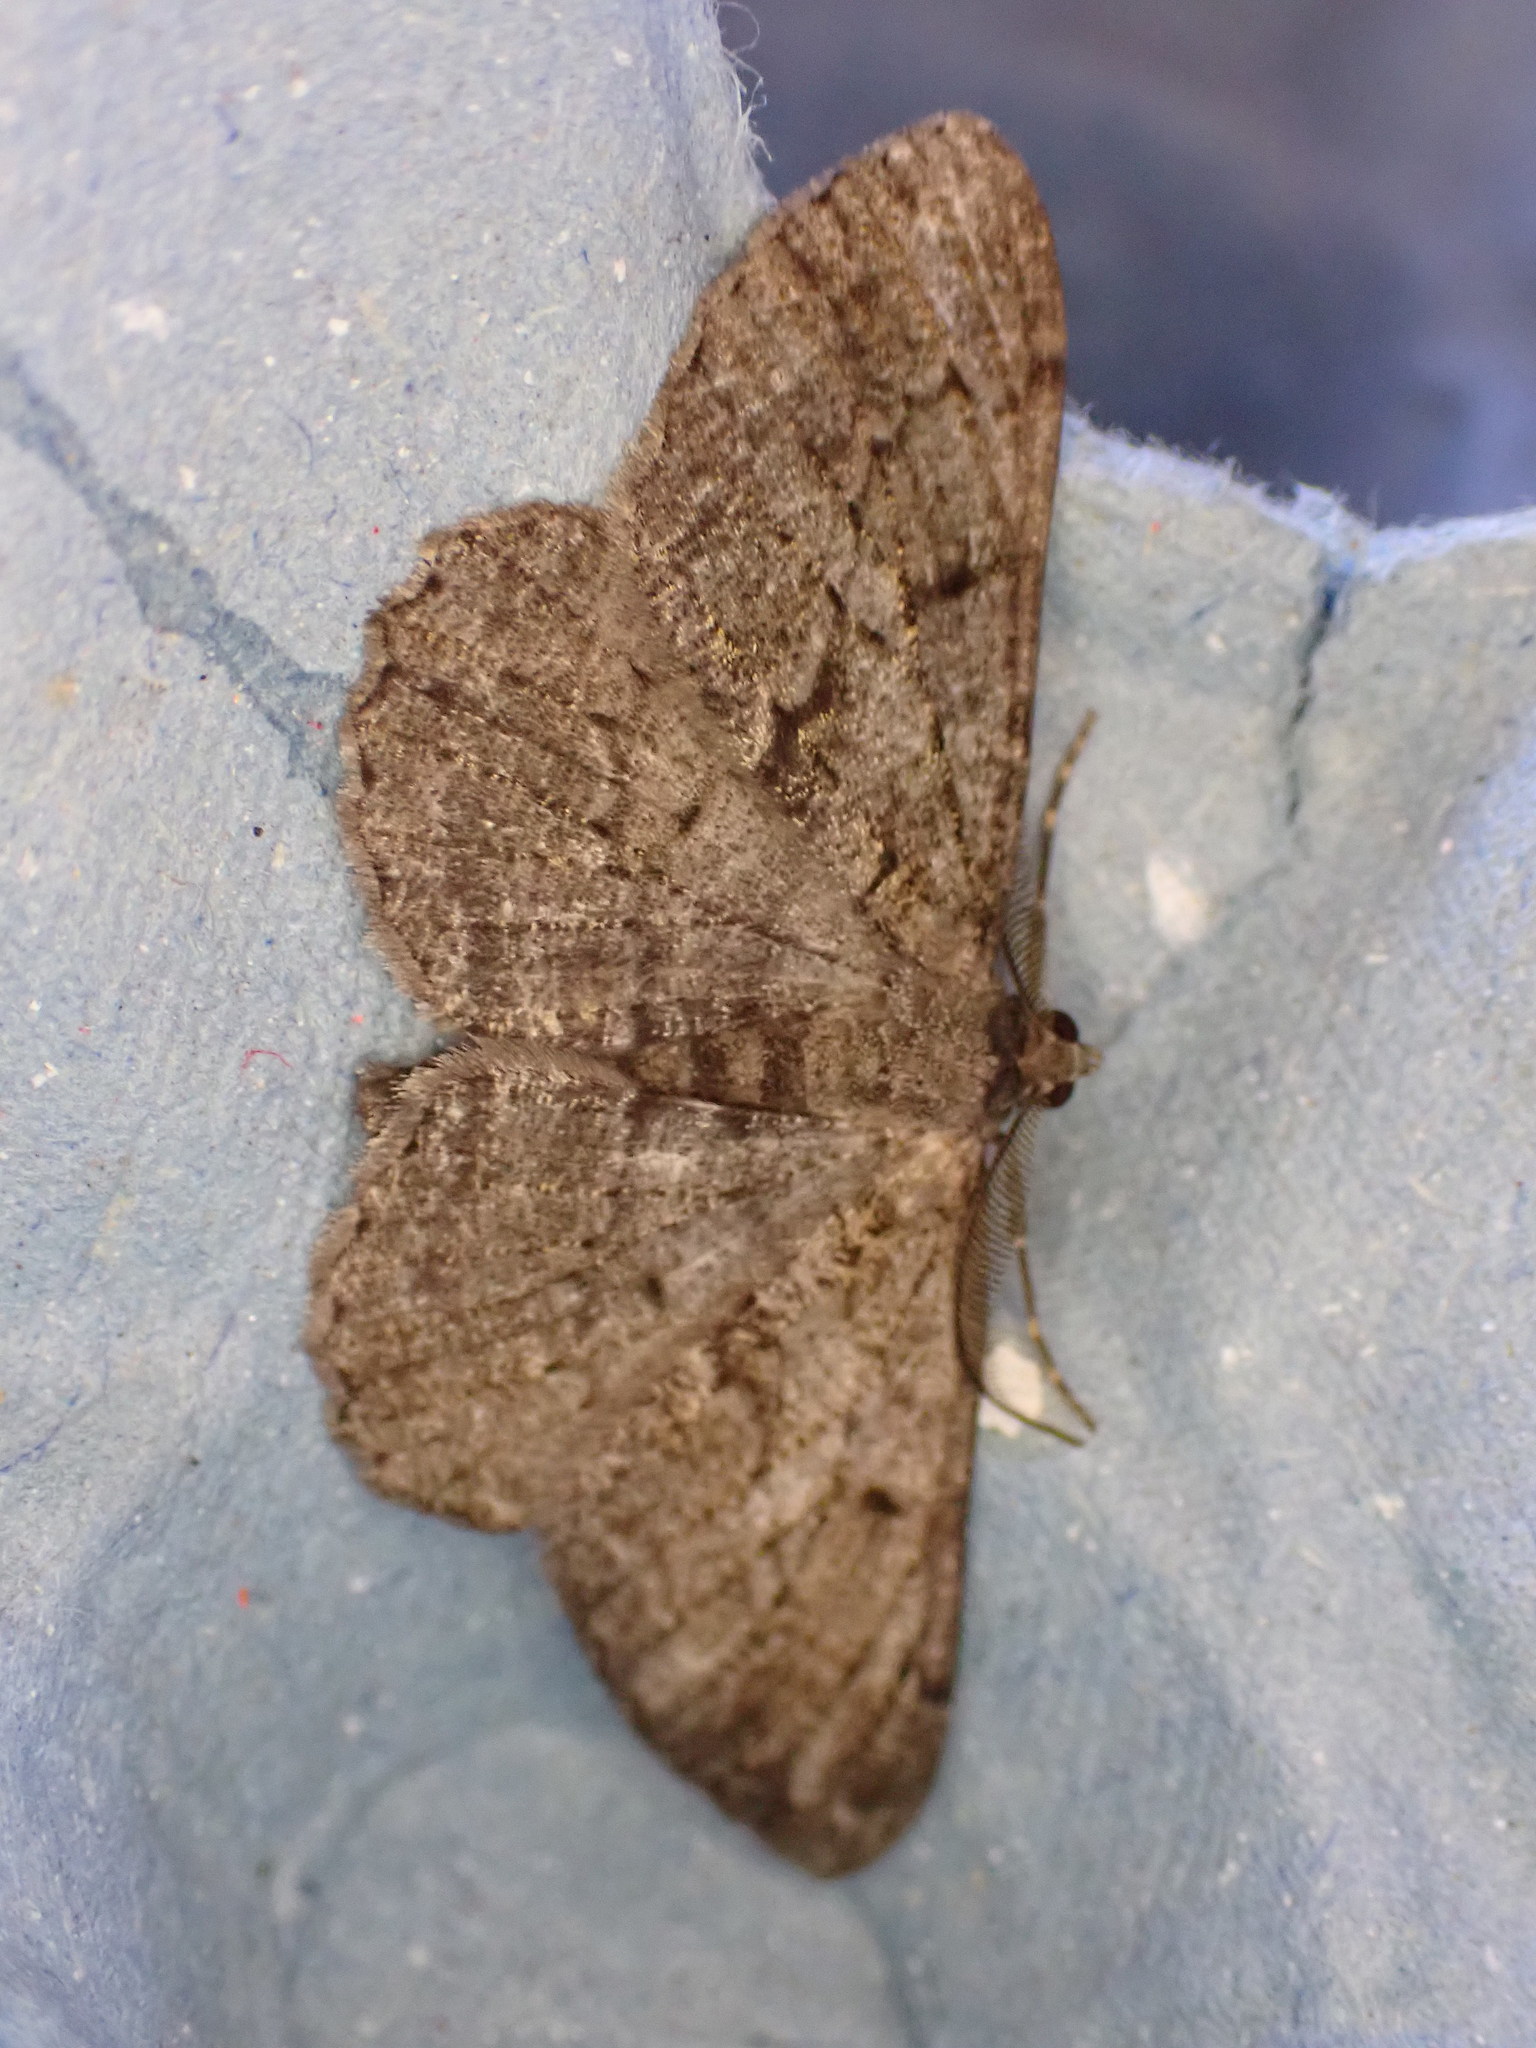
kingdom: Animalia
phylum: Arthropoda
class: Insecta
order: Lepidoptera
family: Geometridae
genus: Peribatodes
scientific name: Peribatodes rhomboidaria
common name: Willow beauty
